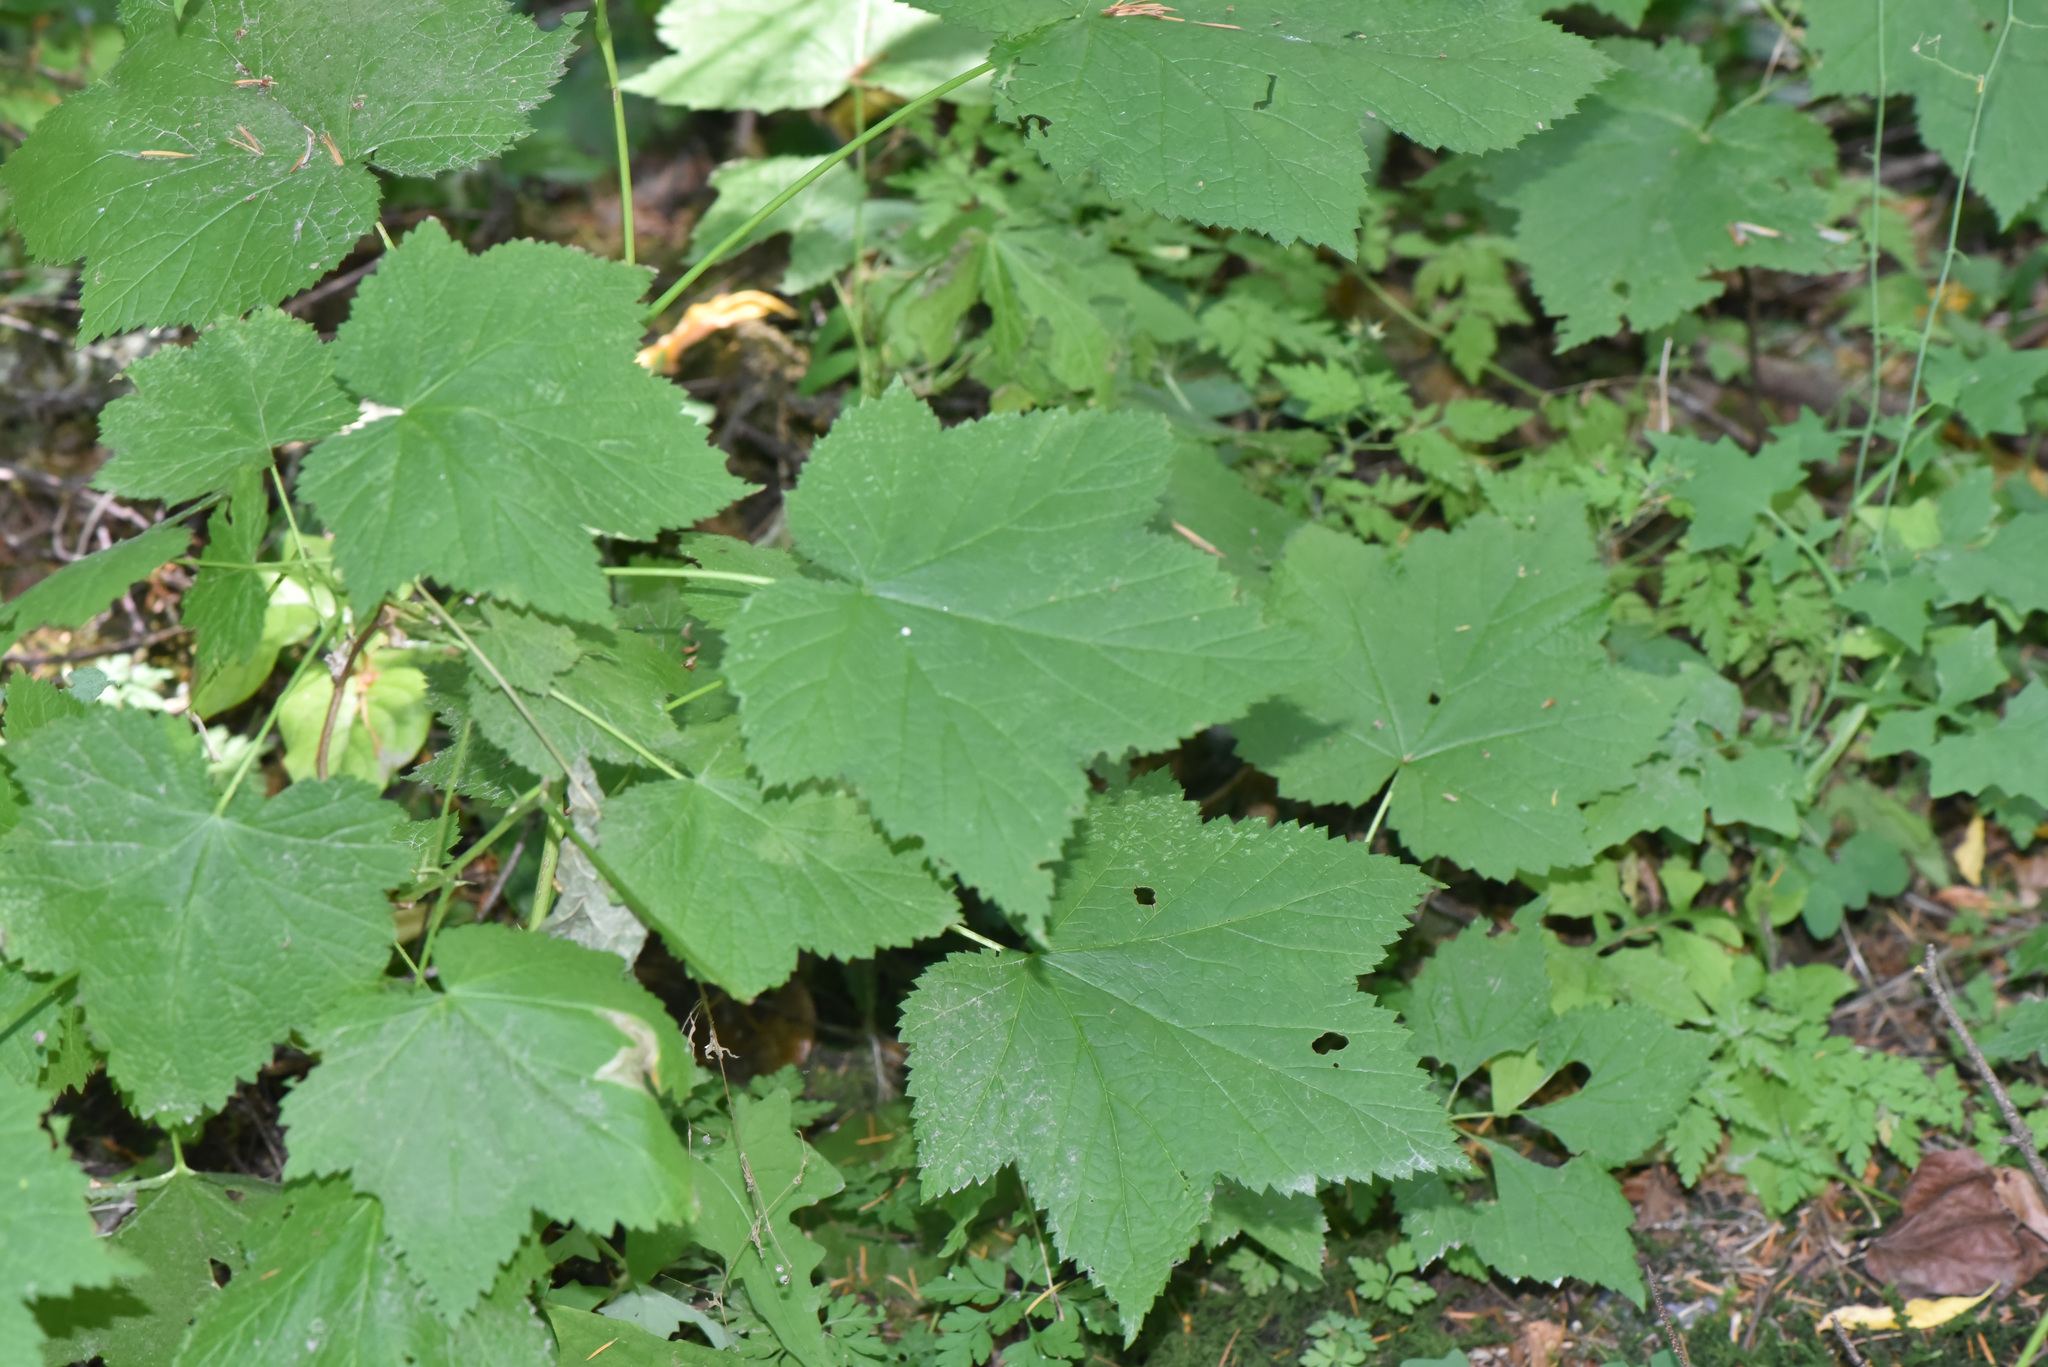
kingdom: Plantae
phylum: Tracheophyta
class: Magnoliopsida
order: Rosales
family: Rosaceae
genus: Rubus
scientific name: Rubus parviflorus
